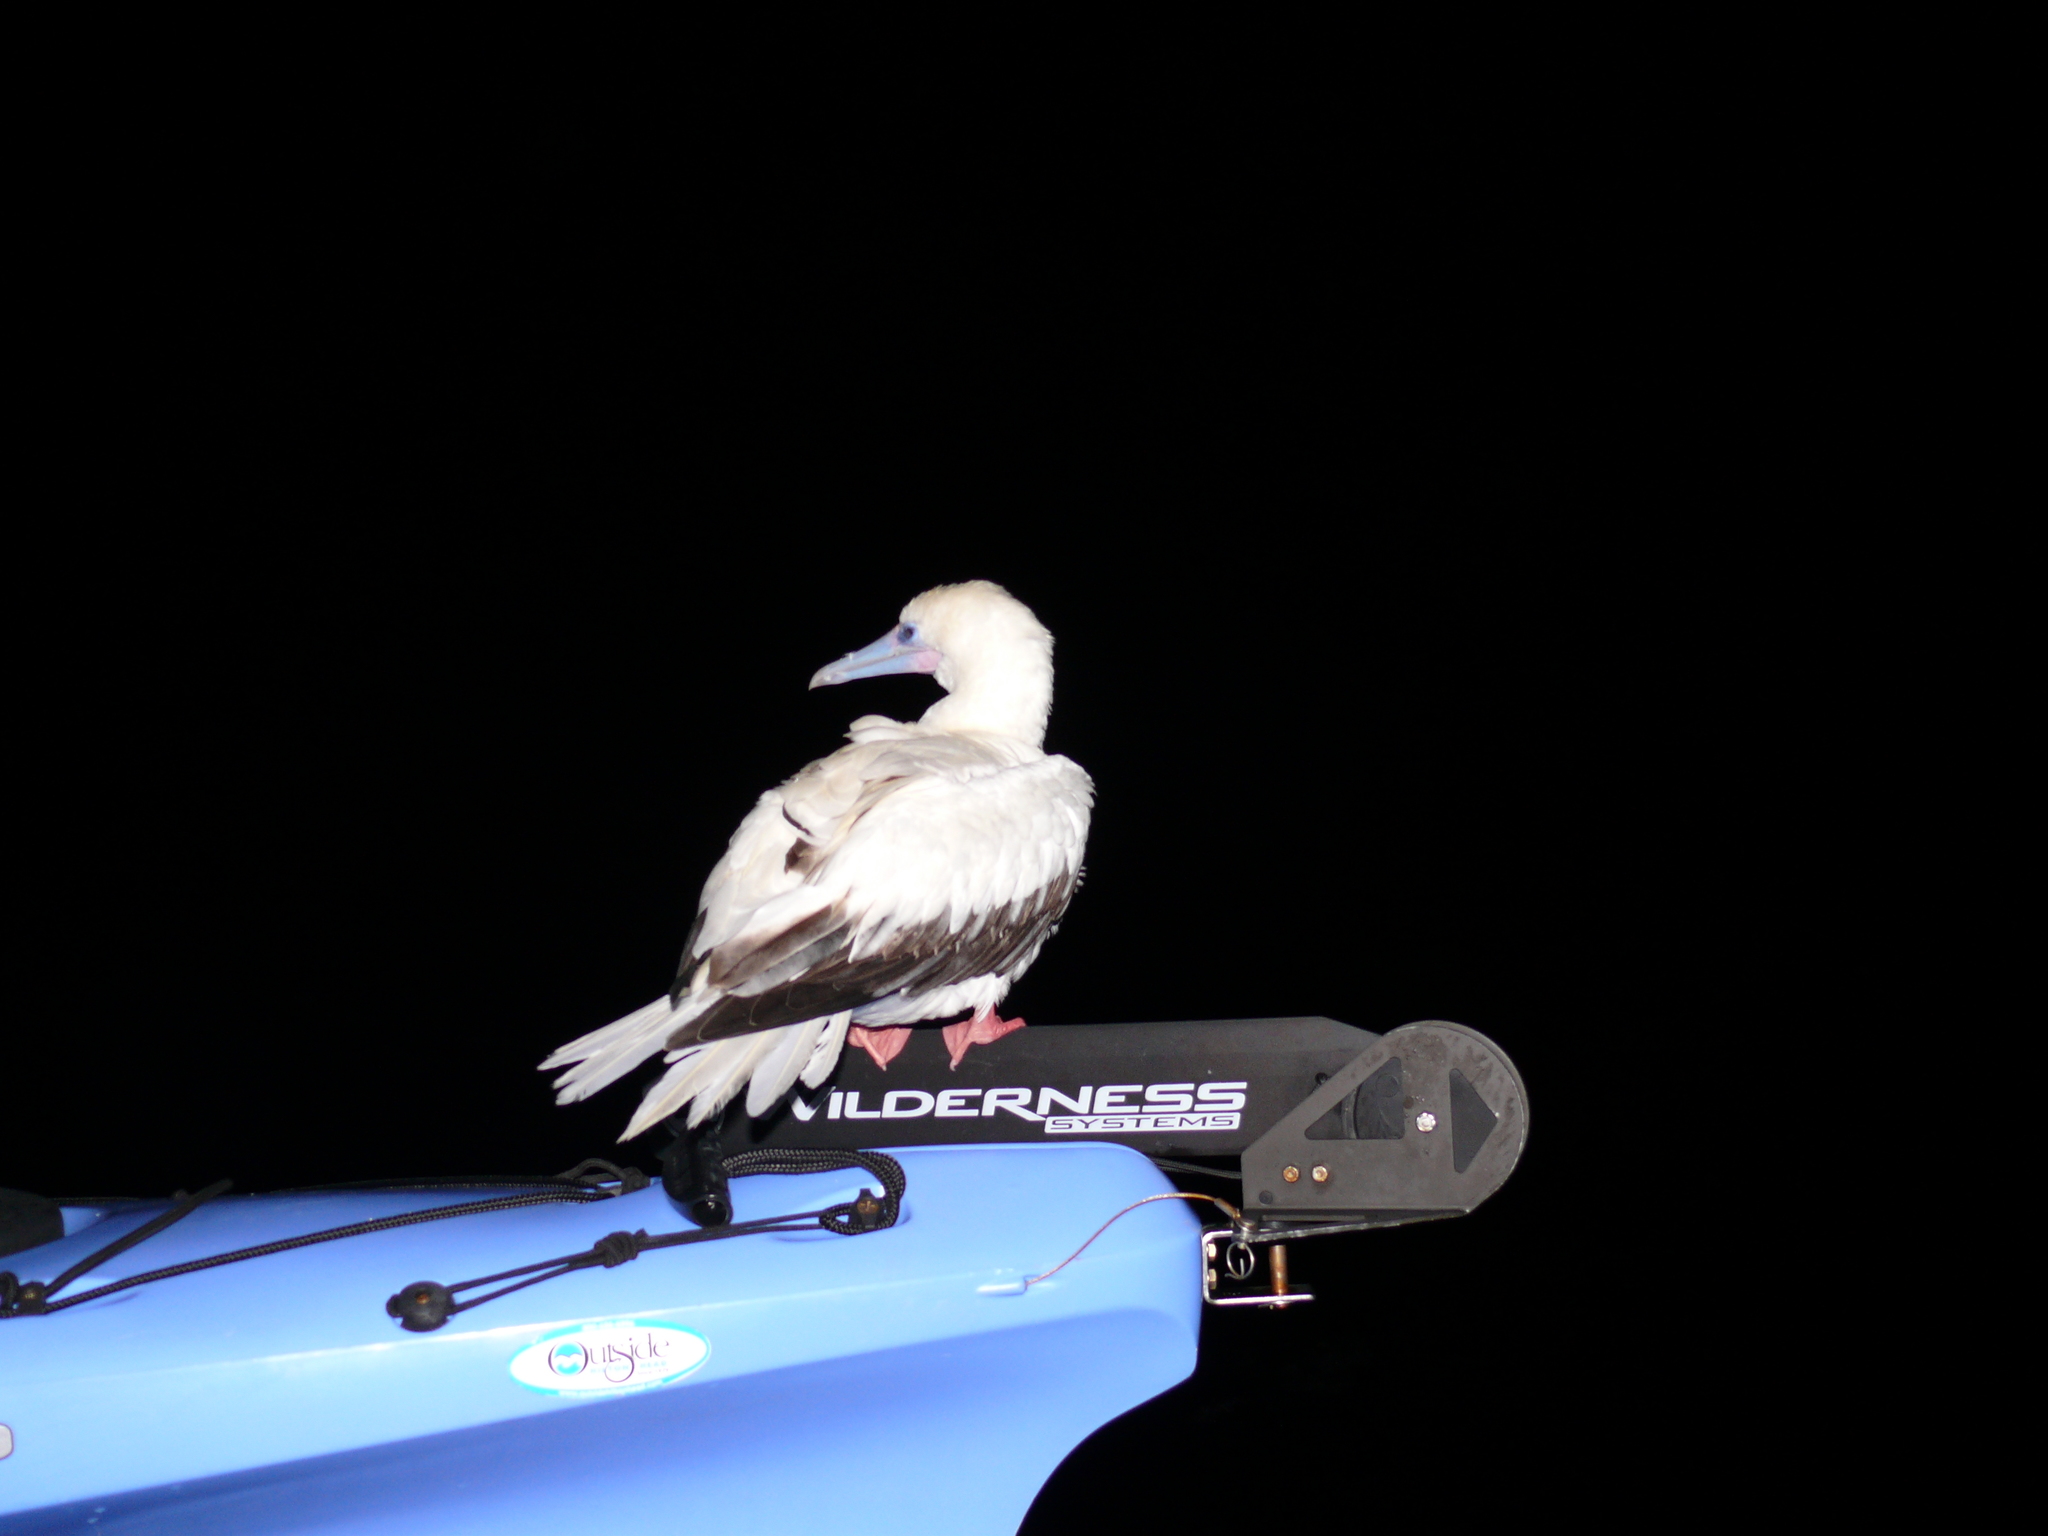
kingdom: Animalia
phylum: Chordata
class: Aves
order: Suliformes
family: Sulidae
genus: Sula
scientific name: Sula sula
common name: Red-footed booby
